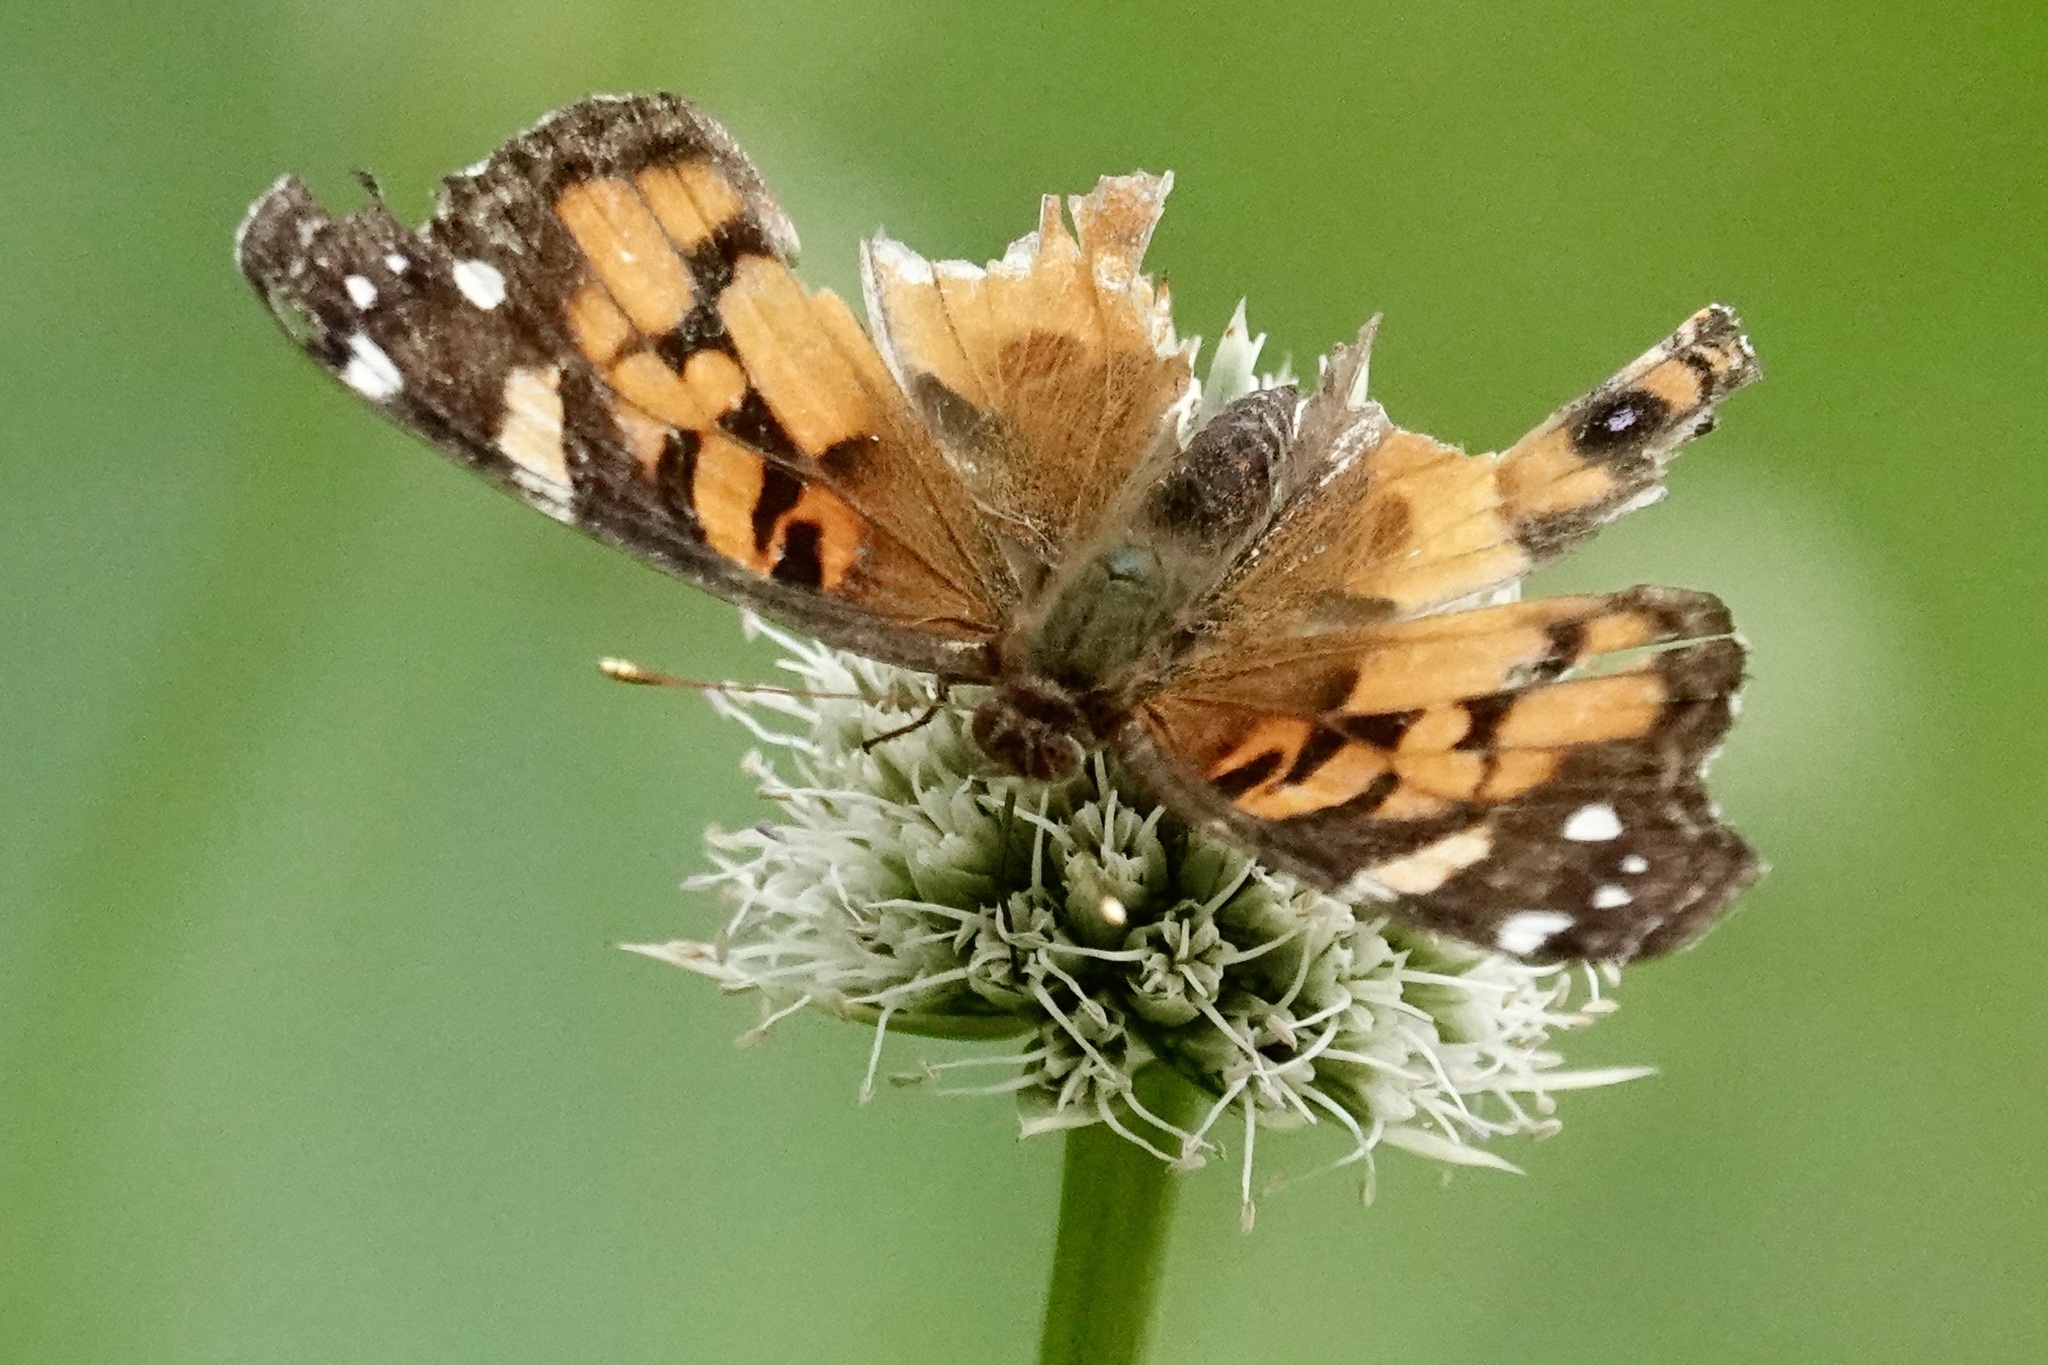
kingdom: Animalia
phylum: Arthropoda
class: Insecta
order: Lepidoptera
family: Nymphalidae
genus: Vanessa
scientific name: Vanessa virginiensis
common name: American lady
